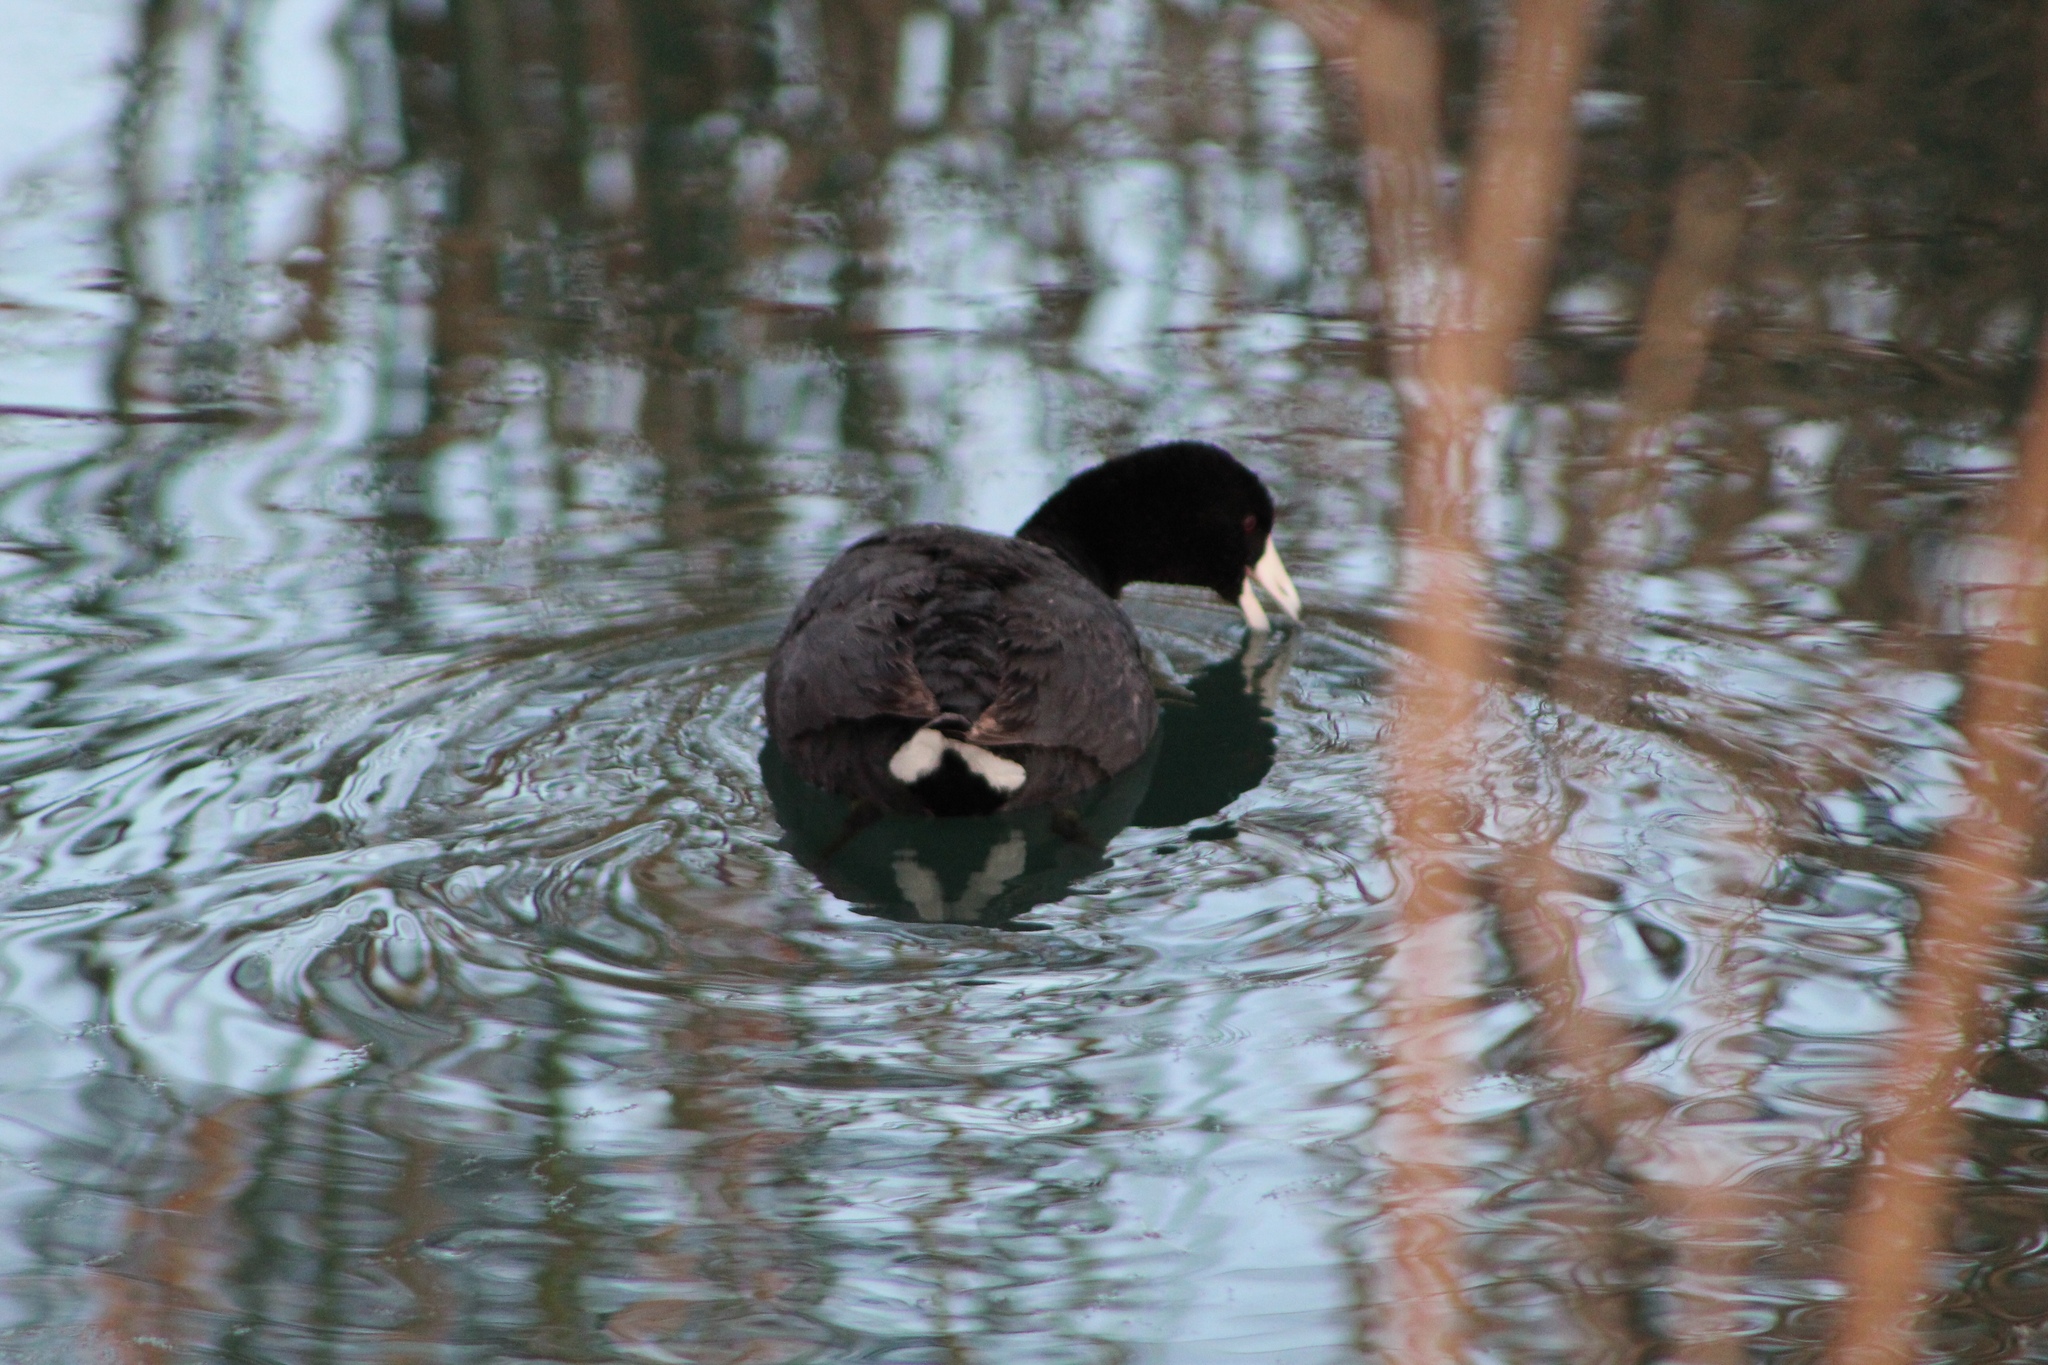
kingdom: Animalia
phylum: Chordata
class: Aves
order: Gruiformes
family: Rallidae
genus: Fulica
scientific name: Fulica americana
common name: American coot
